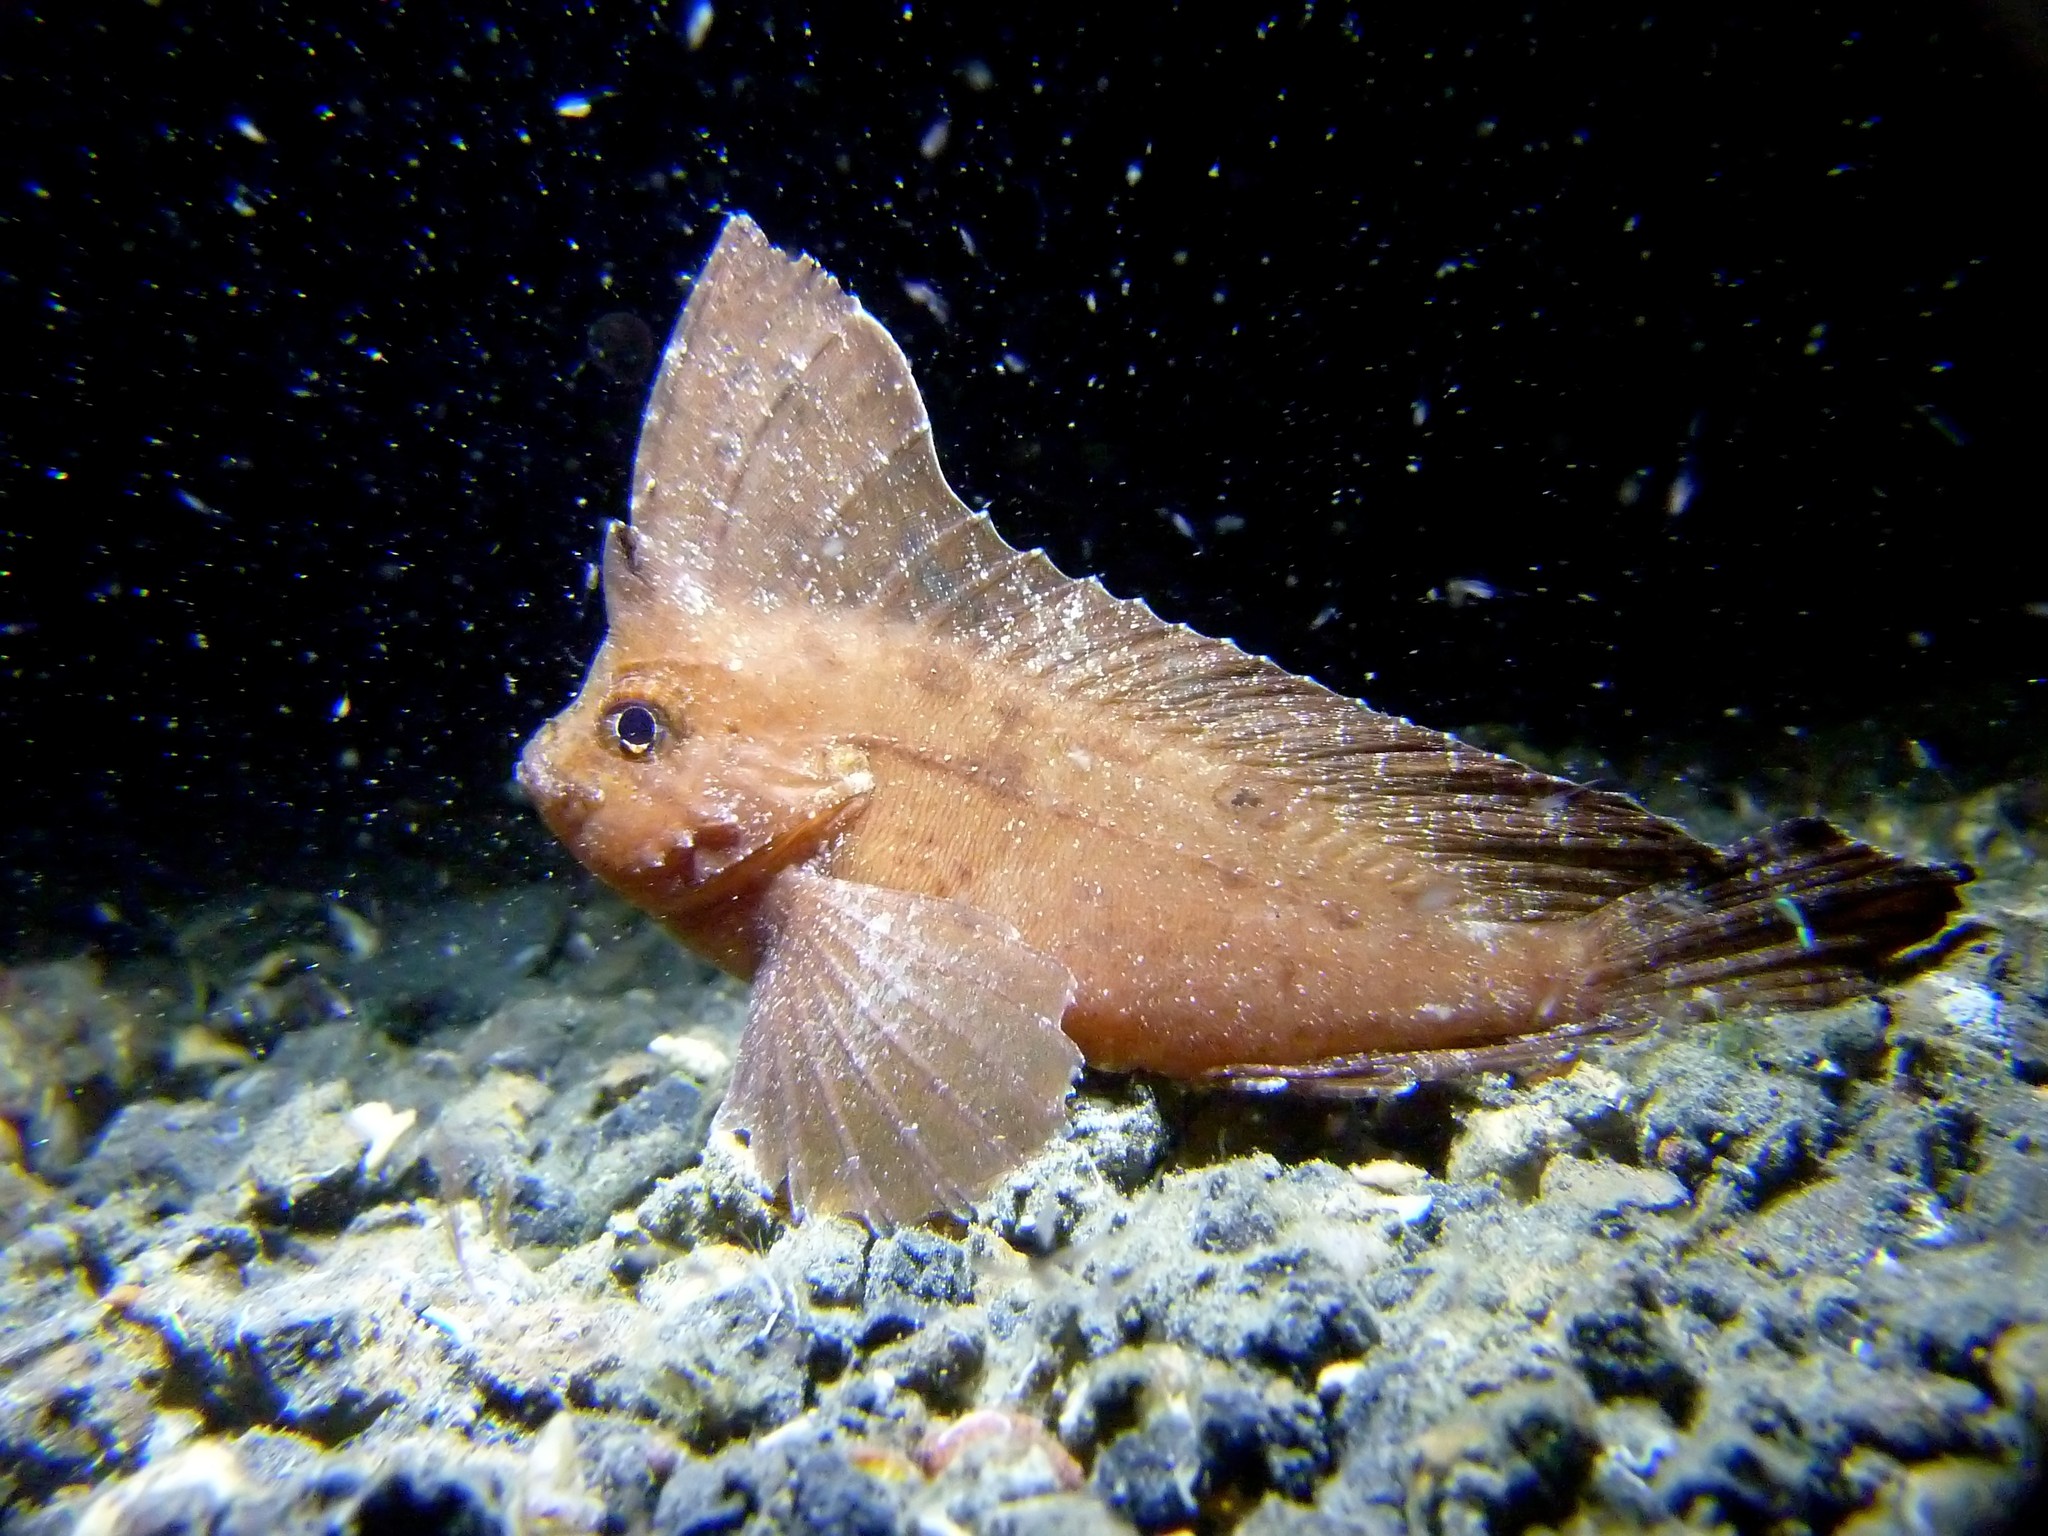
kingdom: Animalia
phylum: Chordata
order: Scorpaeniformes
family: Tetrarogidae
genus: Ablabys
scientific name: Ablabys macracanthus
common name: Spiny leaf-fish
